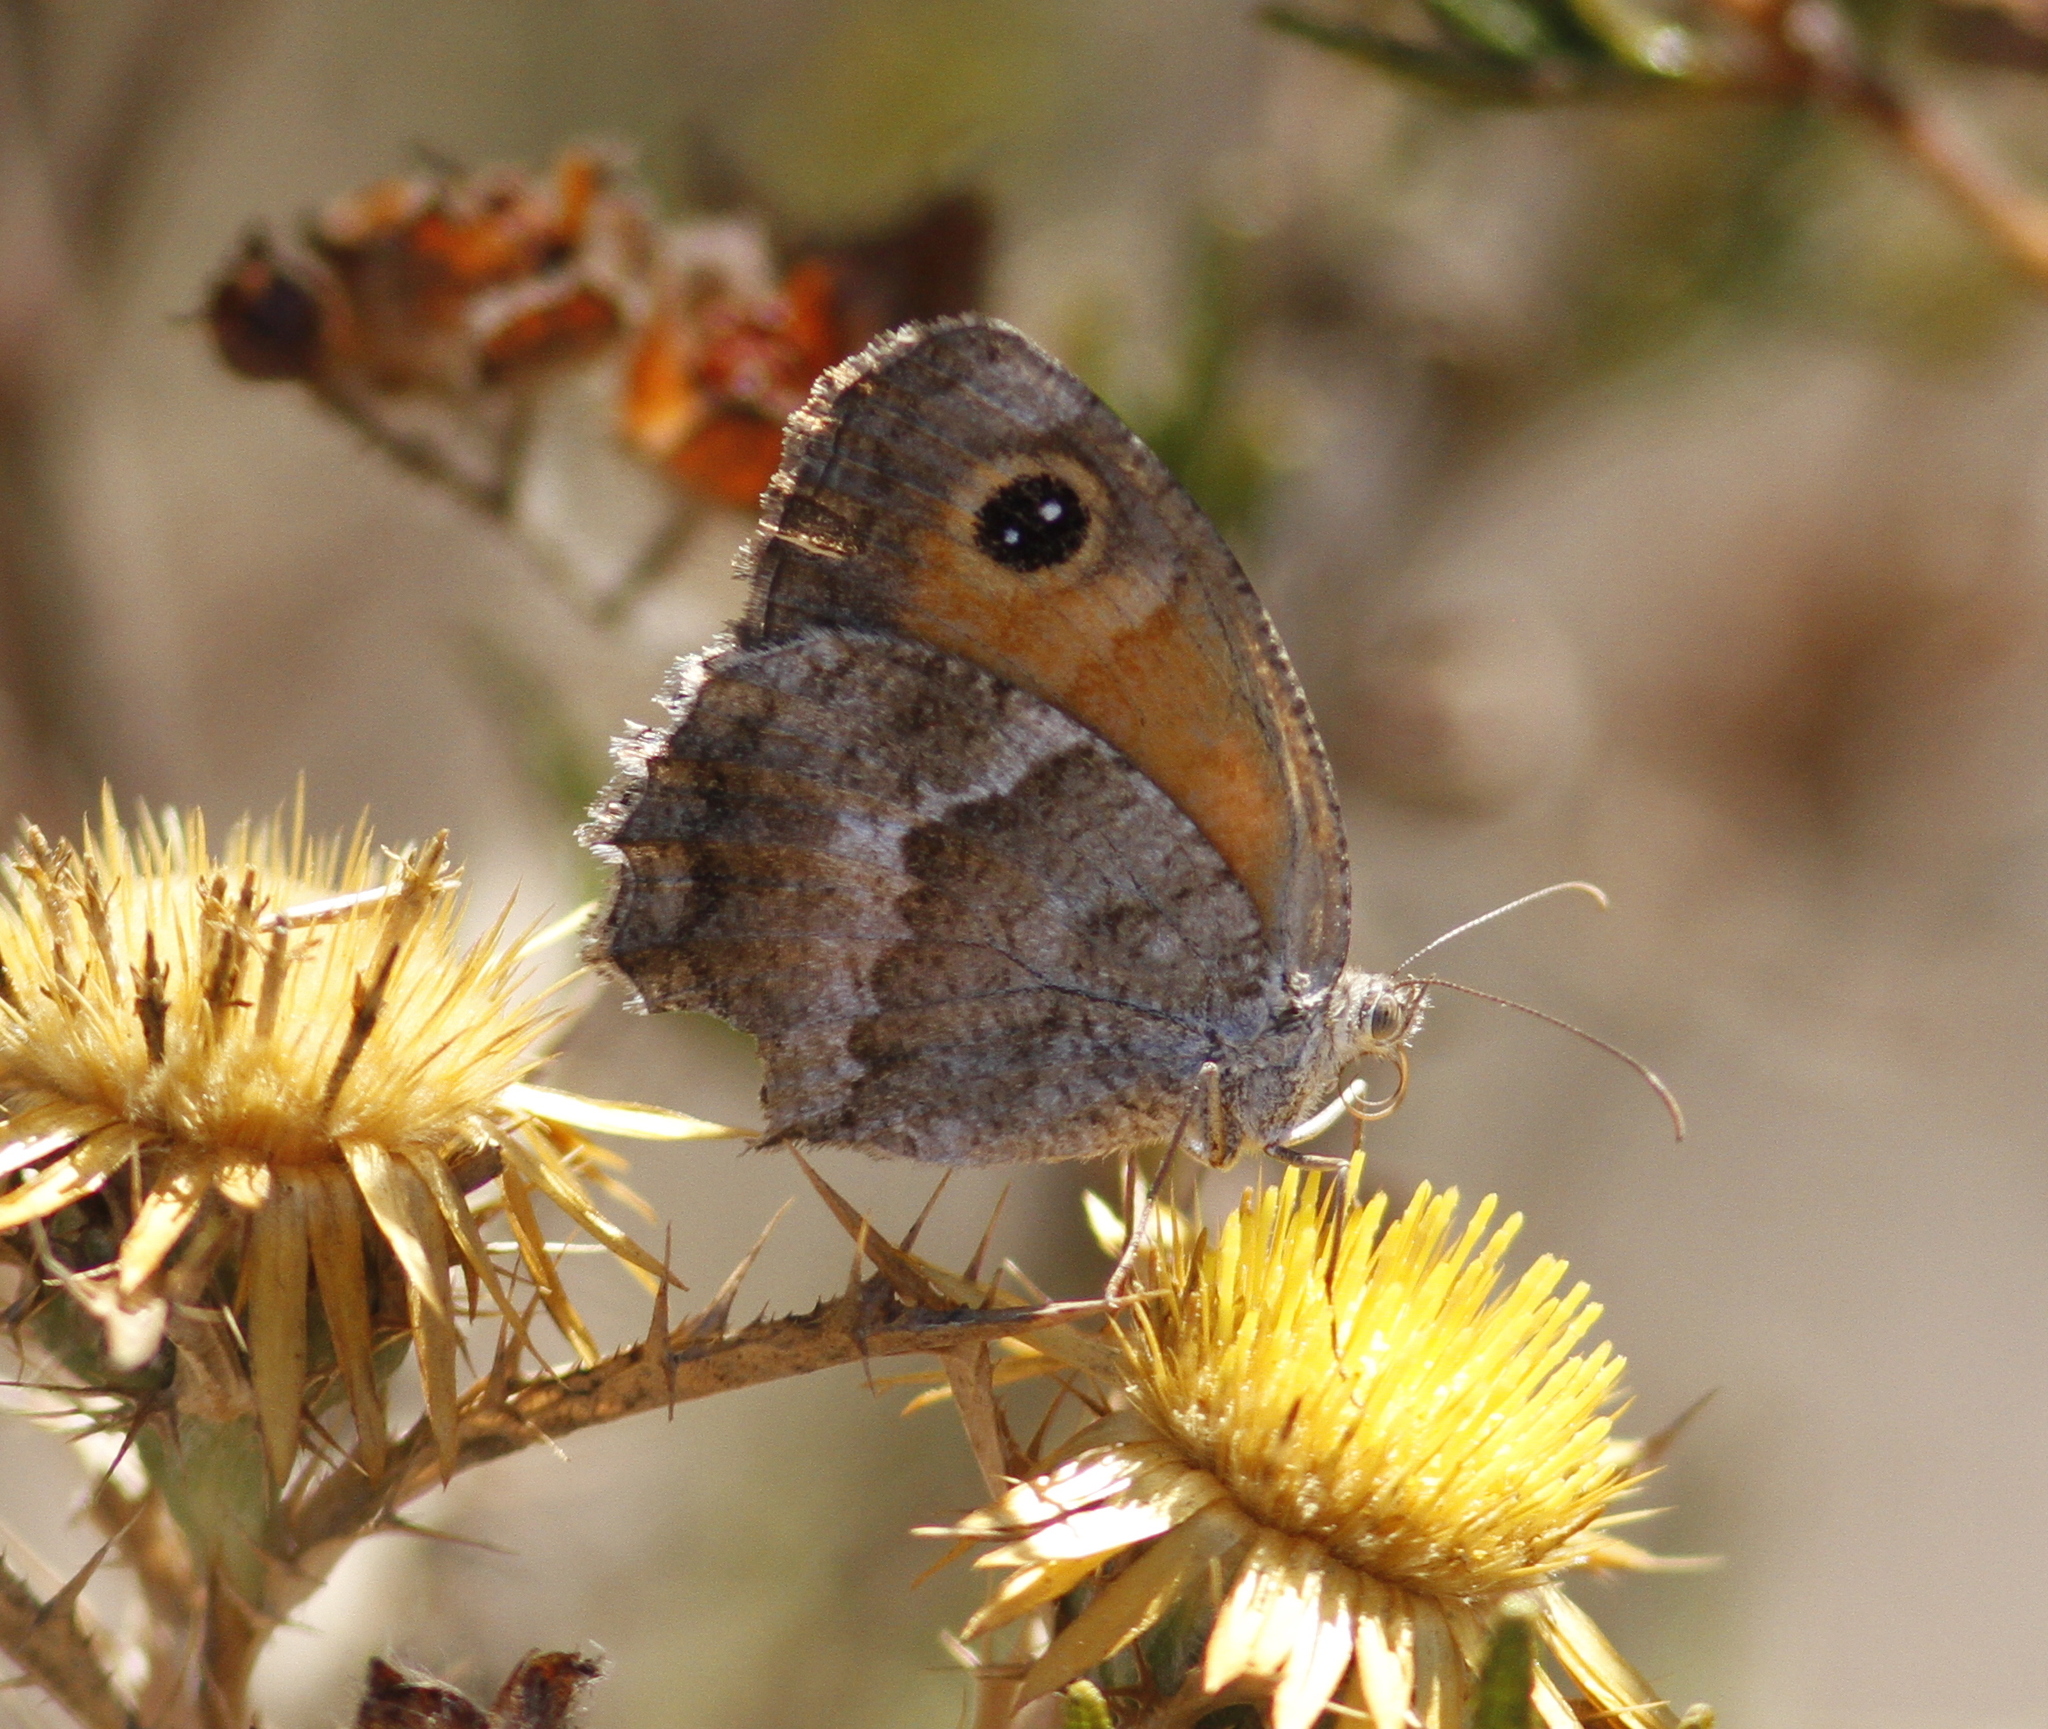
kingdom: Animalia
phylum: Arthropoda
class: Insecta
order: Lepidoptera
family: Nymphalidae
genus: Pyronia
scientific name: Pyronia cecilia
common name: Southern gatekeeper
